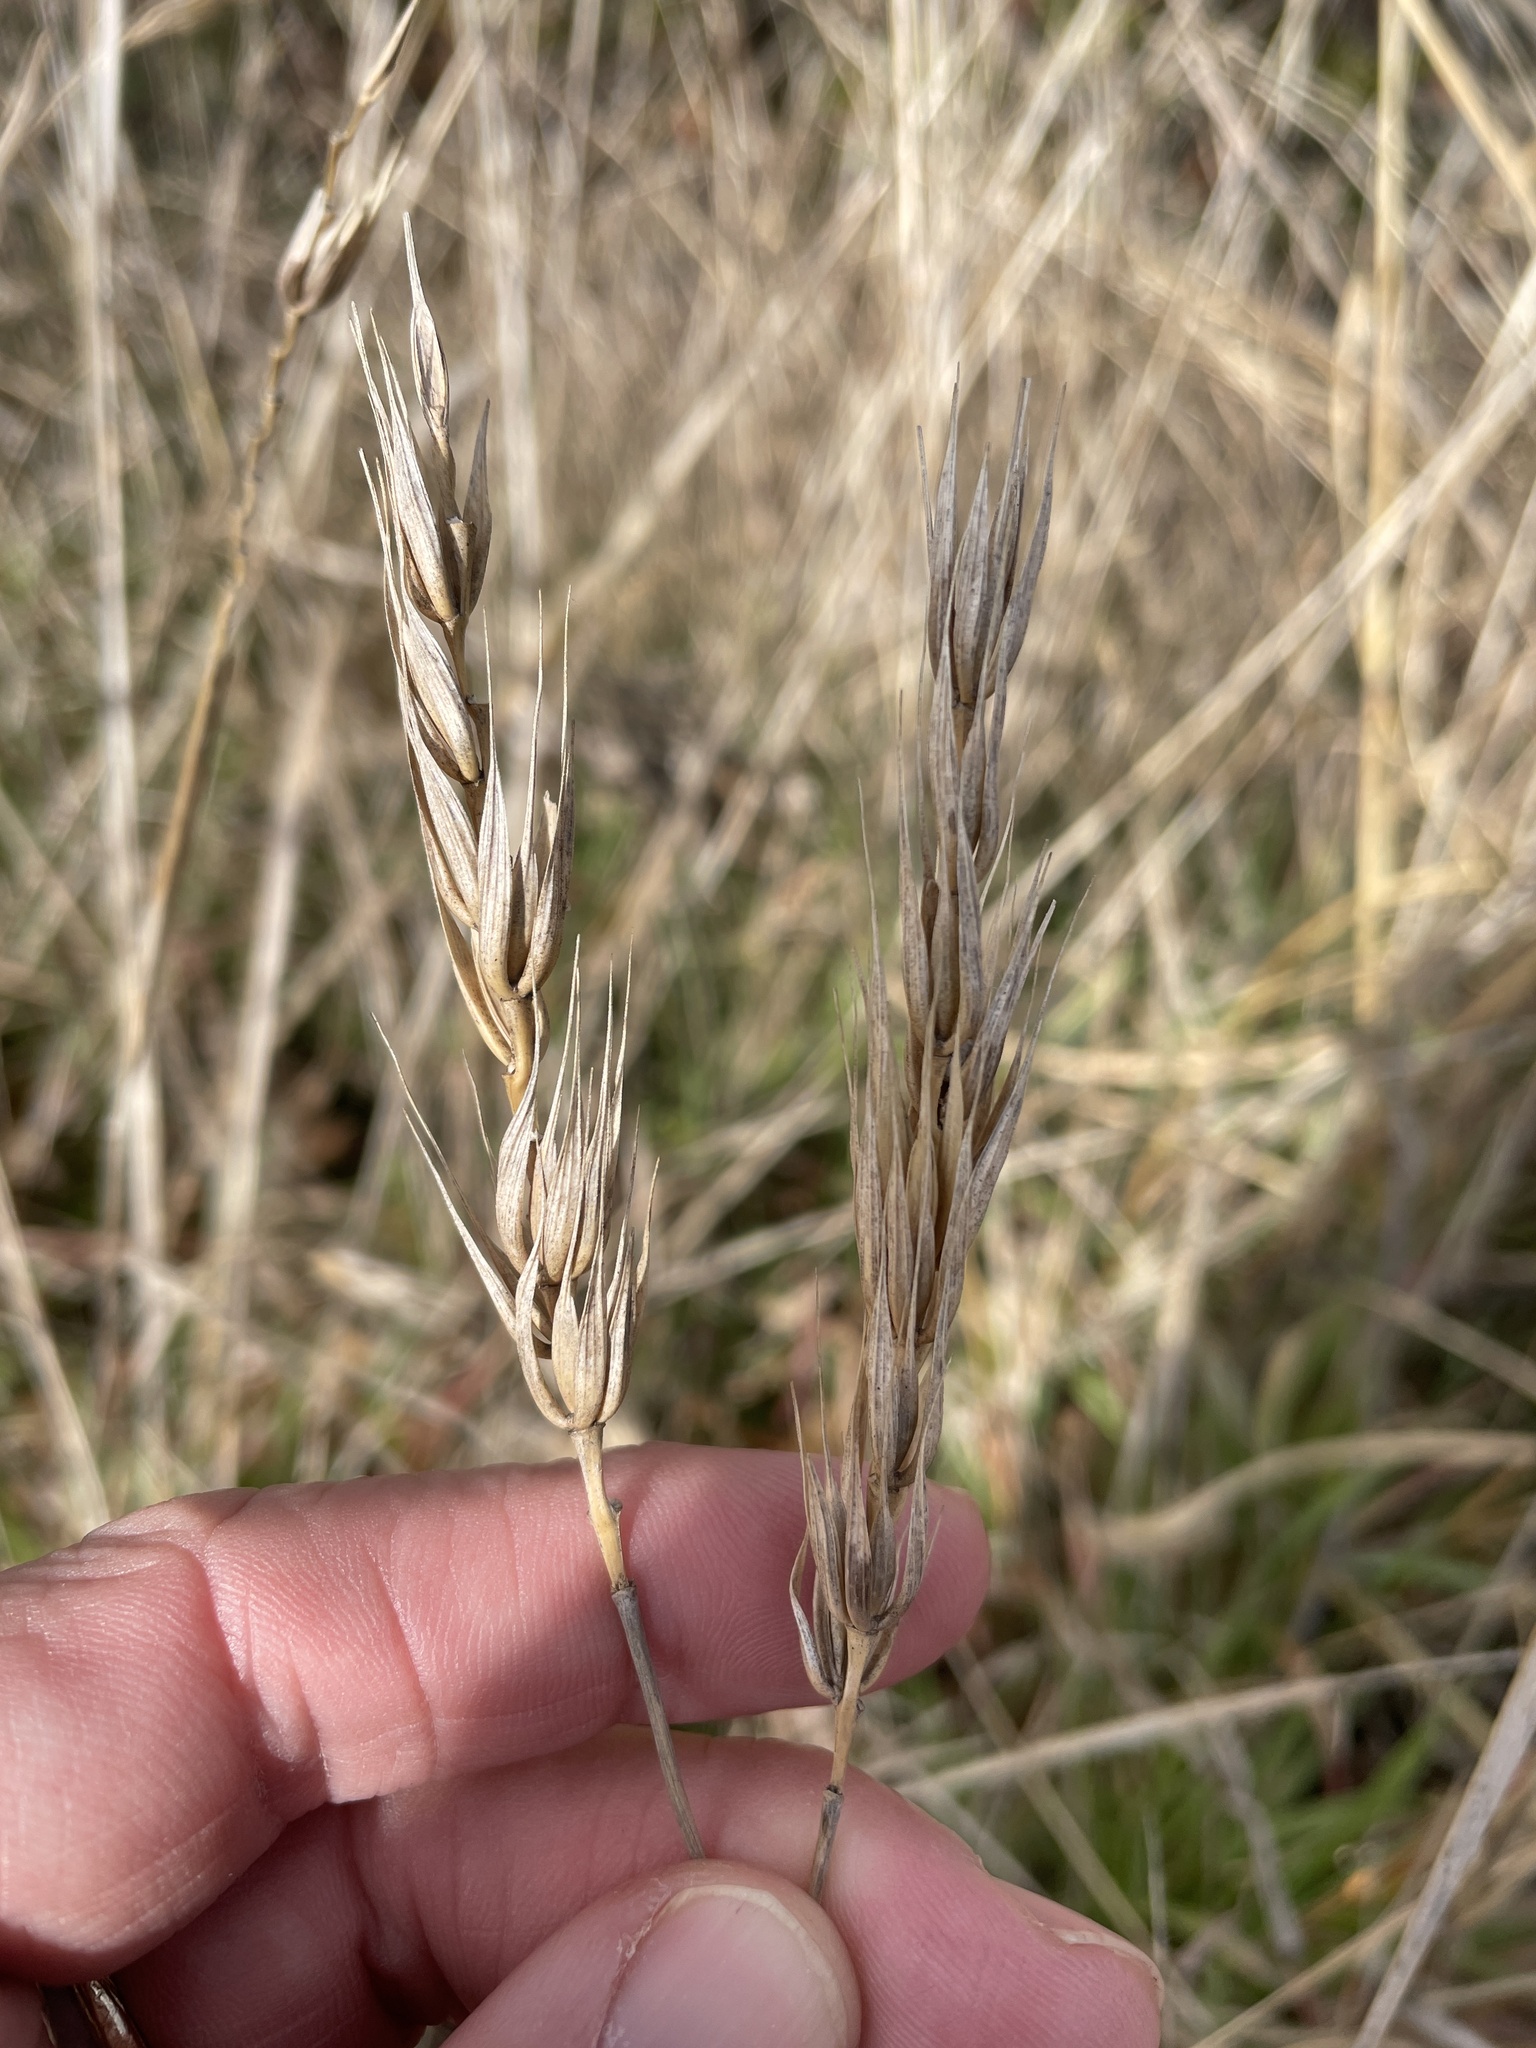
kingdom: Plantae
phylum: Tracheophyta
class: Liliopsida
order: Poales
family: Poaceae
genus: Elymus
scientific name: Elymus virginicus
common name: Common eastern wildrye
